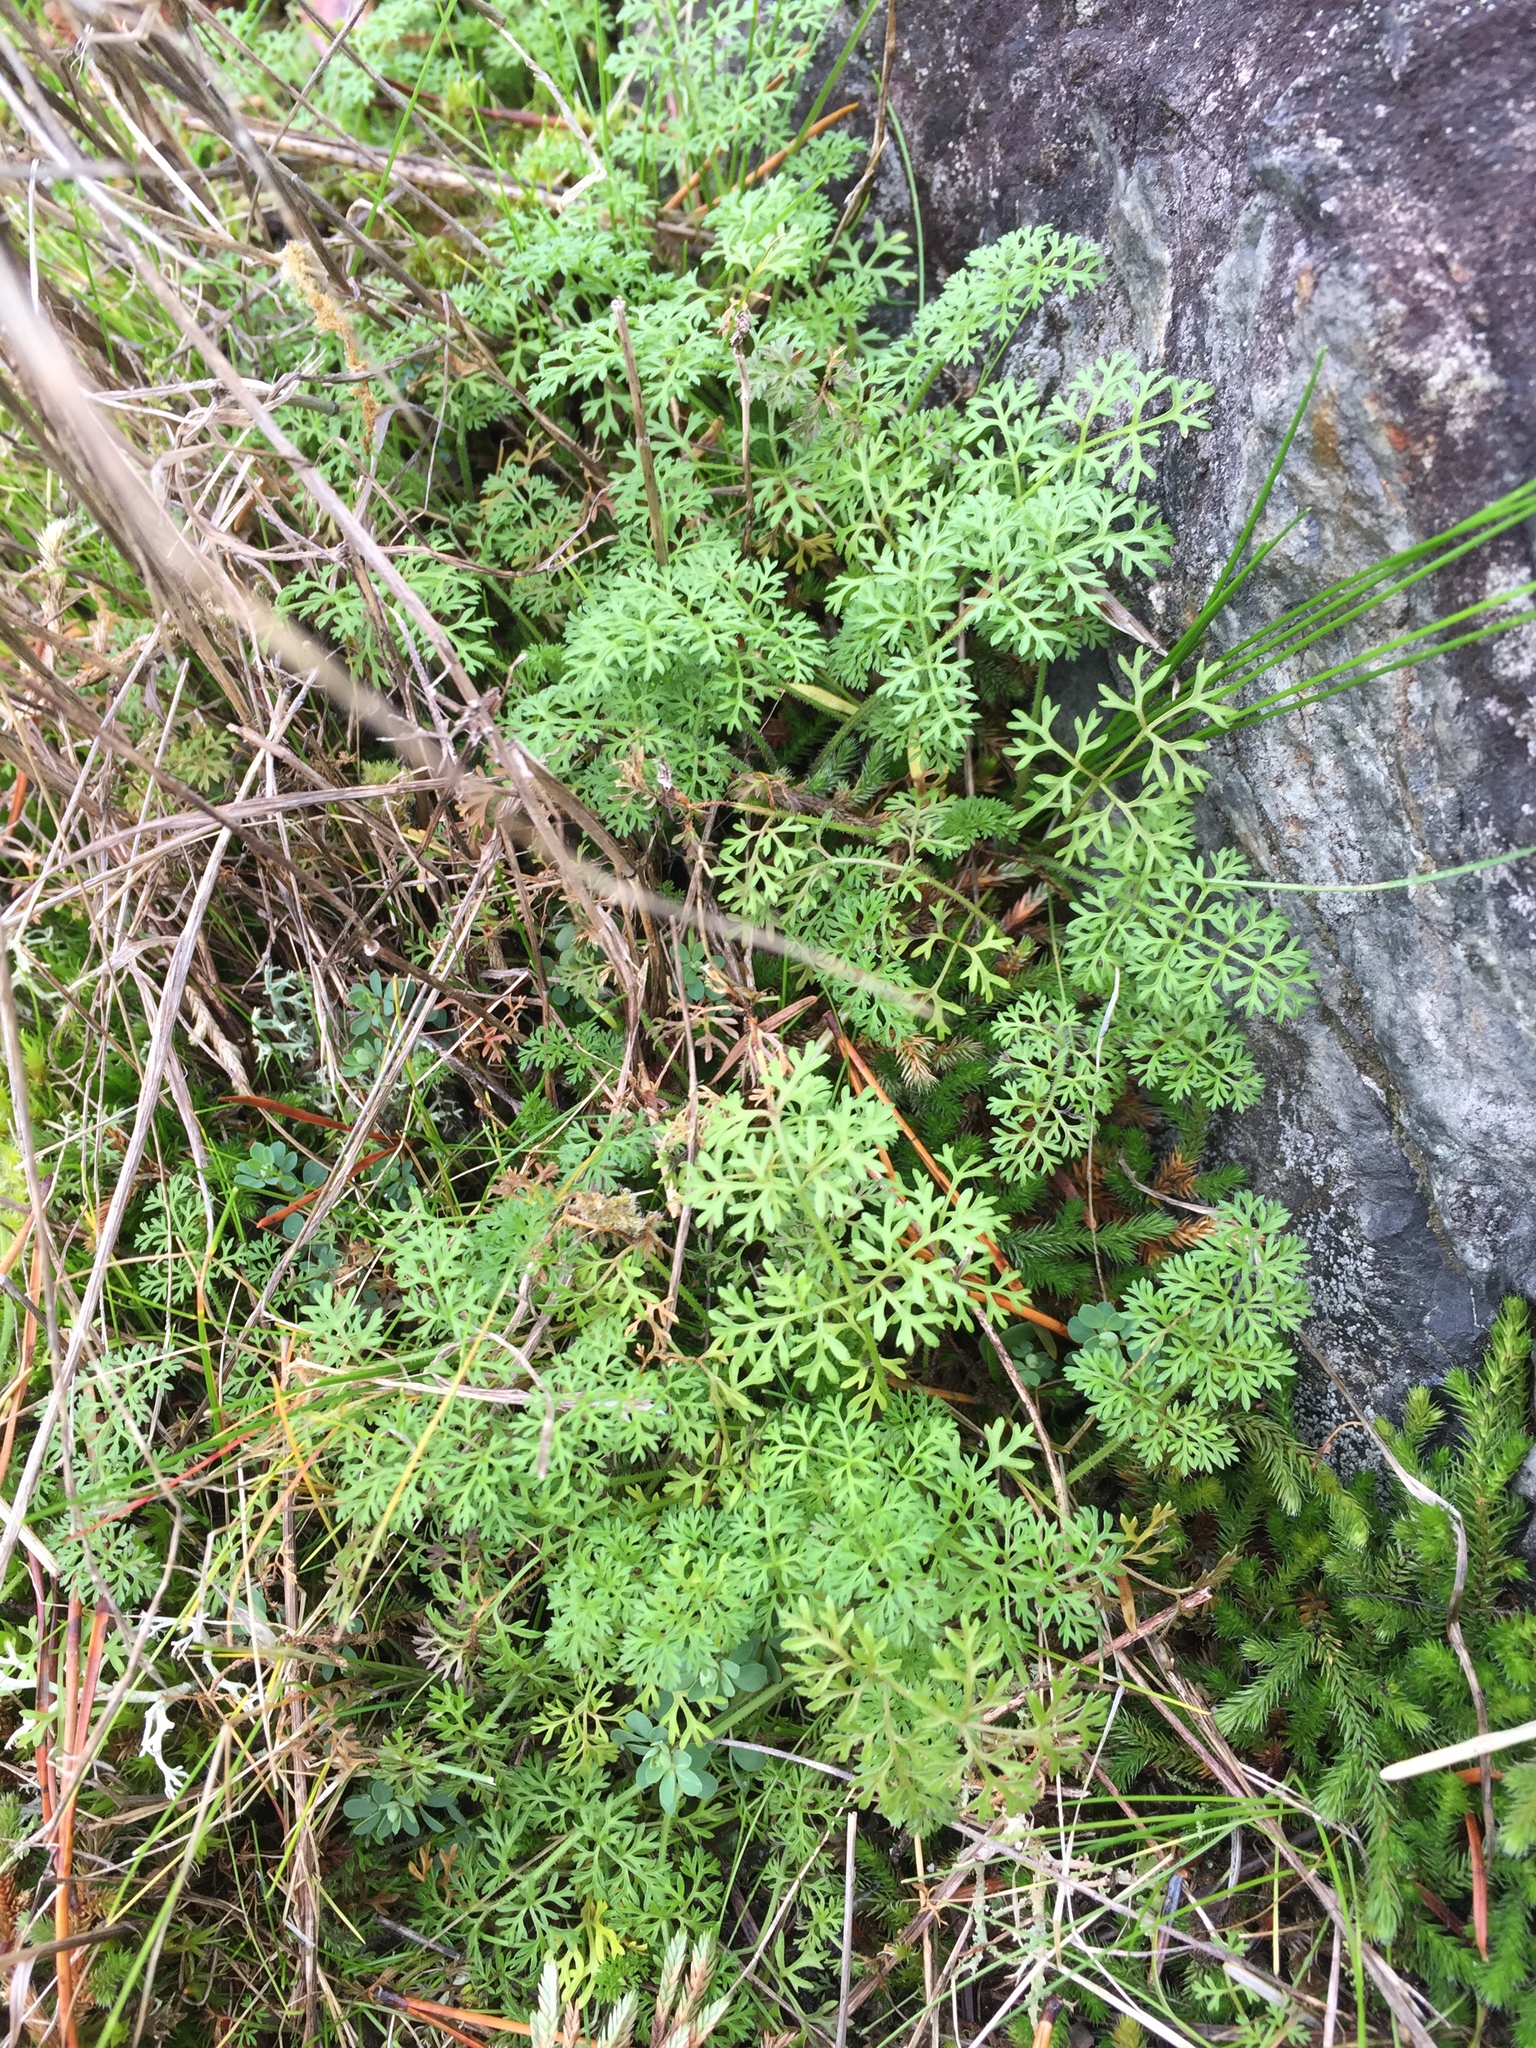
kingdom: Plantae
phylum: Tracheophyta
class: Magnoliopsida
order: Apiales
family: Apiaceae
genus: Daucus
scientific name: Daucus pusillus
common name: Southwest wild carrot
